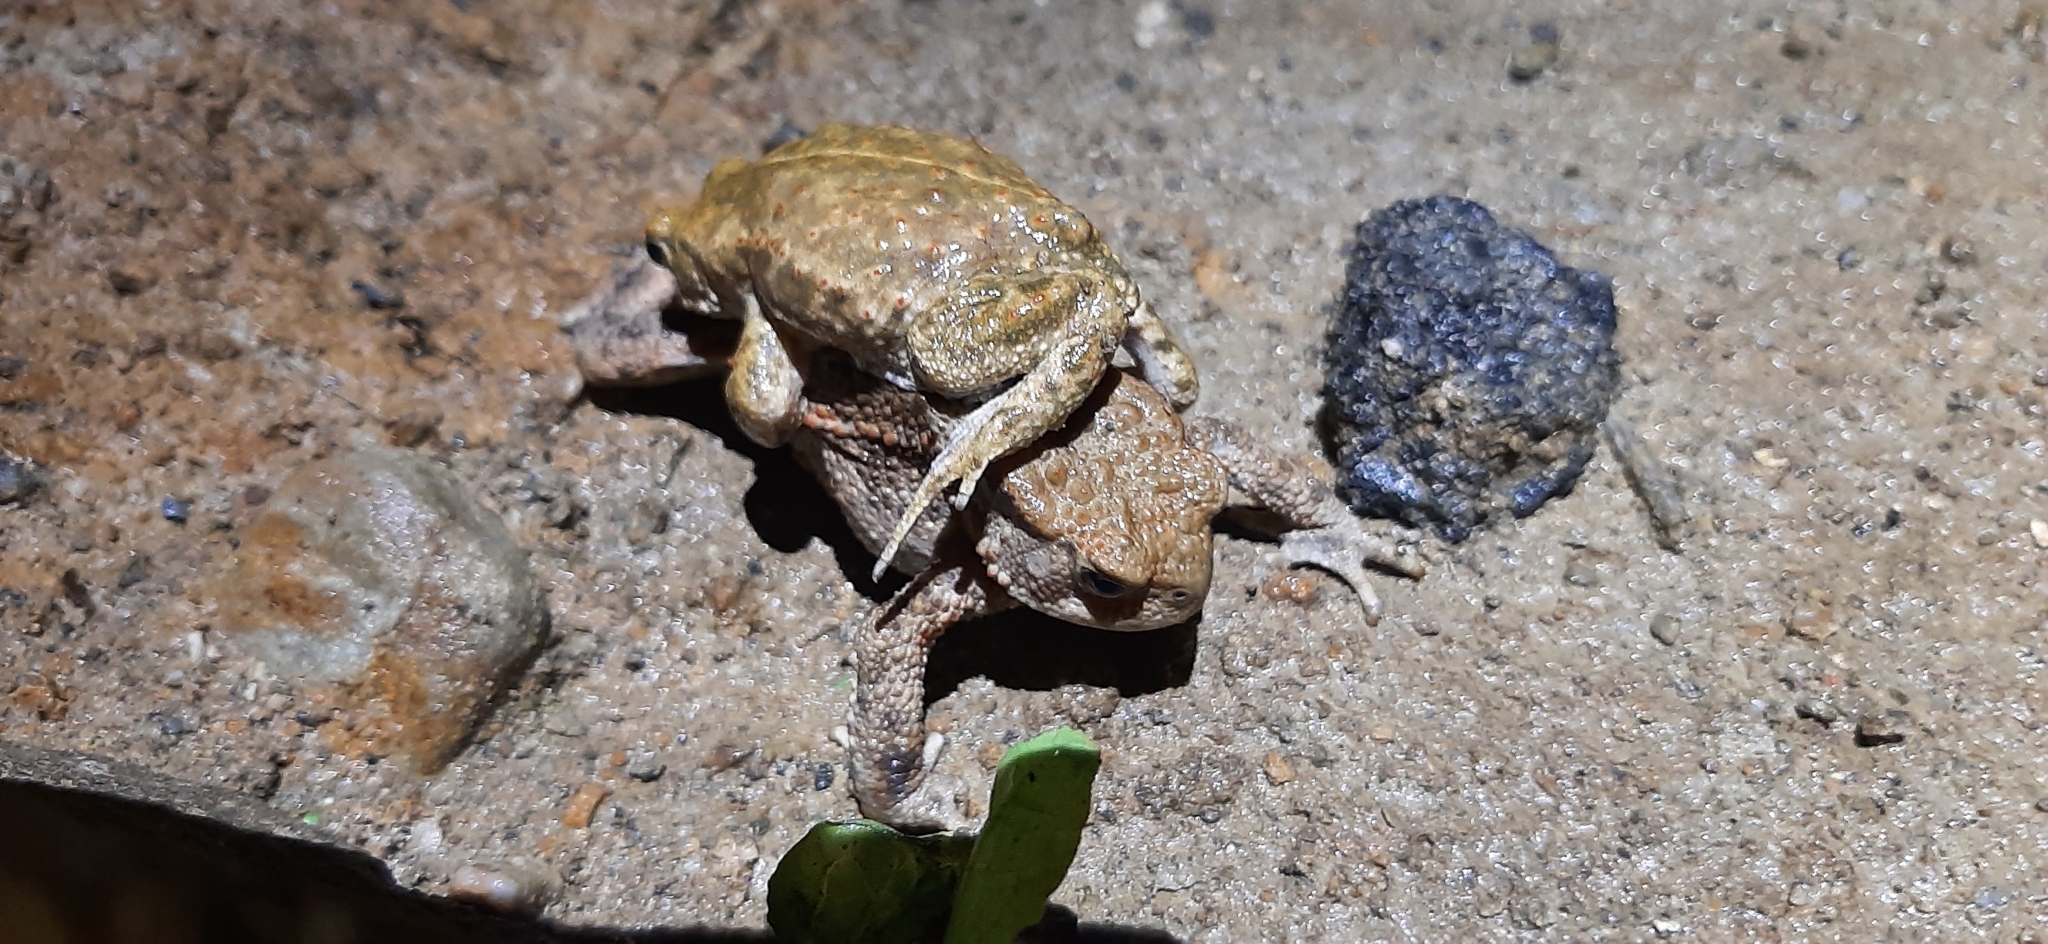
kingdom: Animalia
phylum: Chordata
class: Amphibia
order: Anura
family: Bufonidae
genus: Epidalea
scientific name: Epidalea calamita
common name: Natterjack toad
